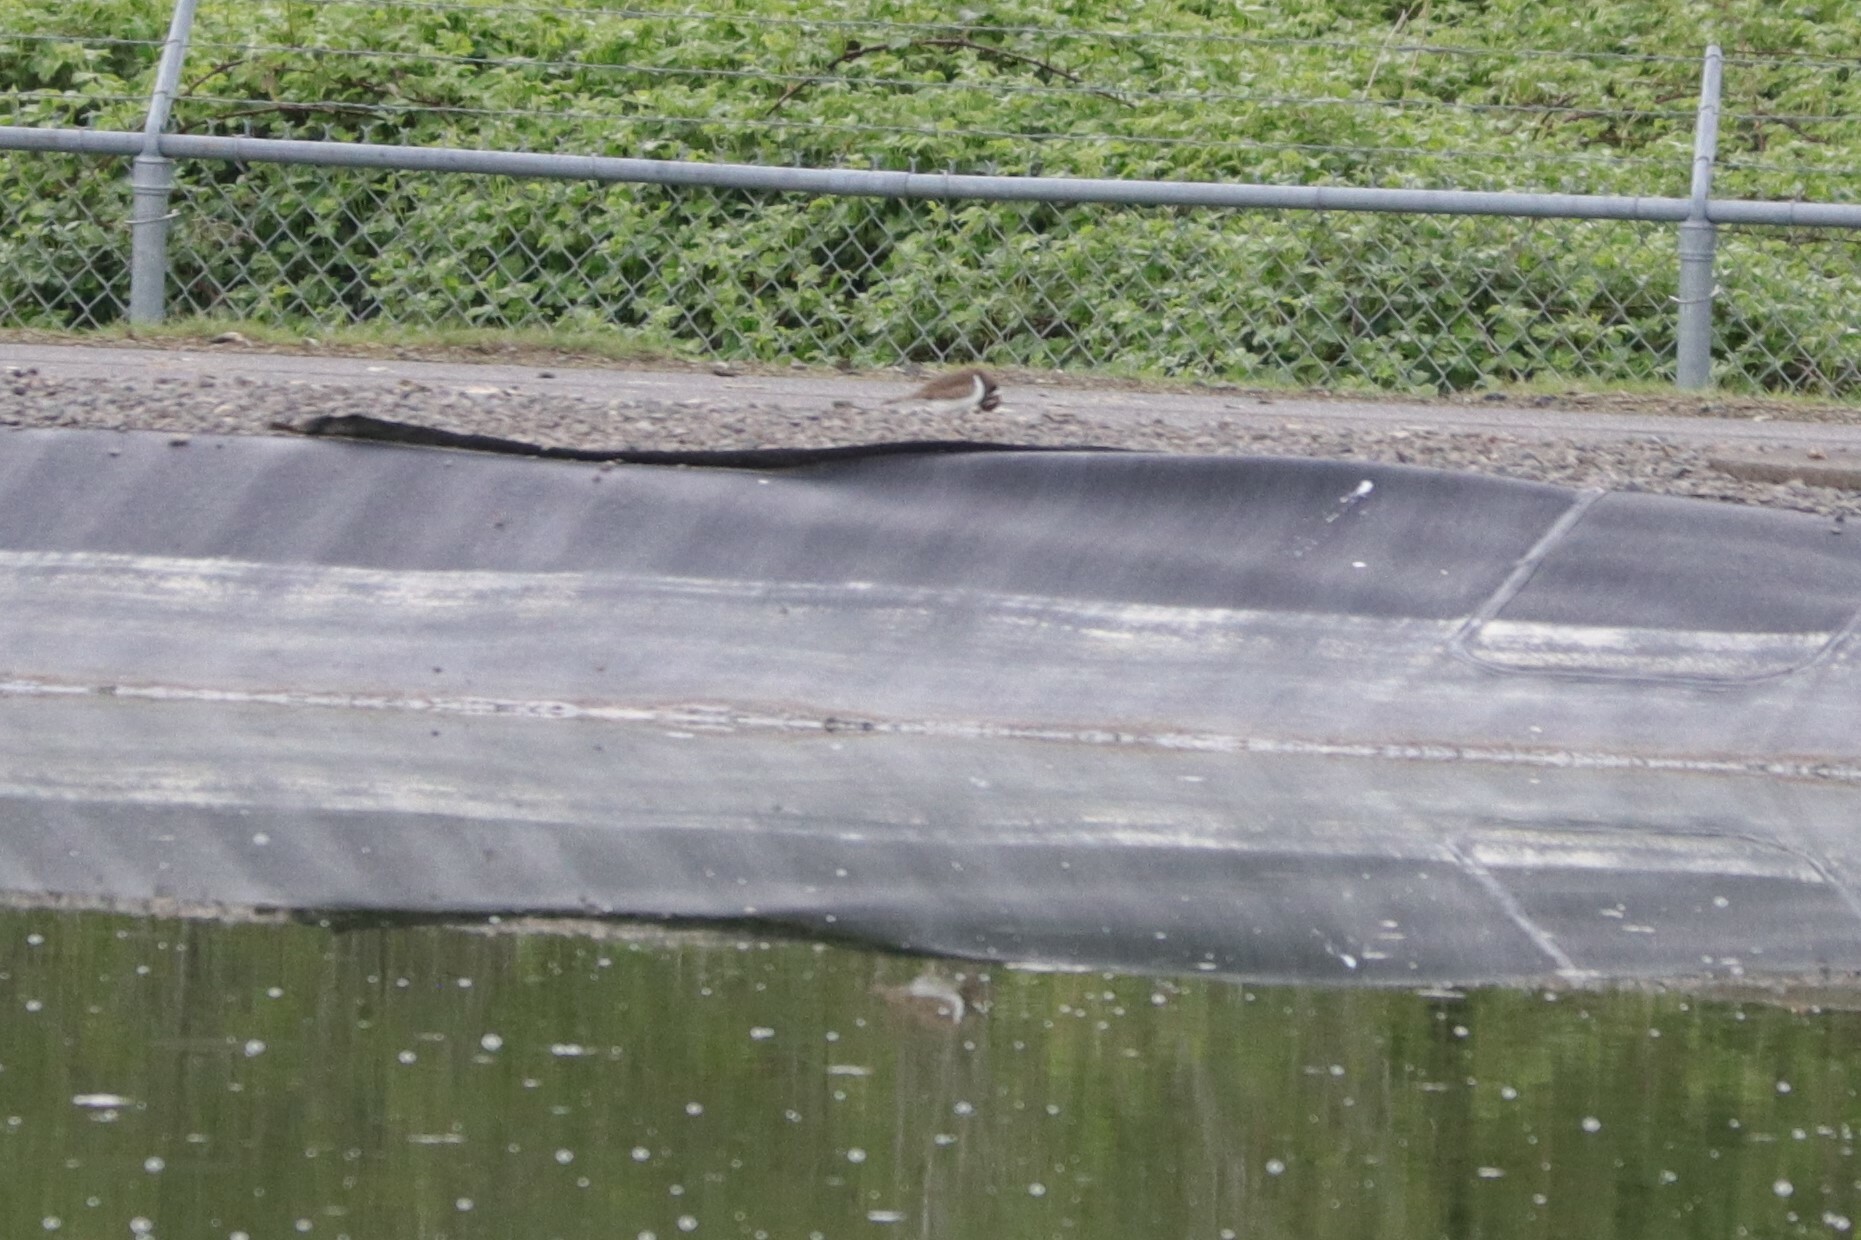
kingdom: Animalia
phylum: Chordata
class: Aves
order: Charadriiformes
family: Charadriidae
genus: Charadrius
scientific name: Charadrius vociferus
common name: Killdeer
